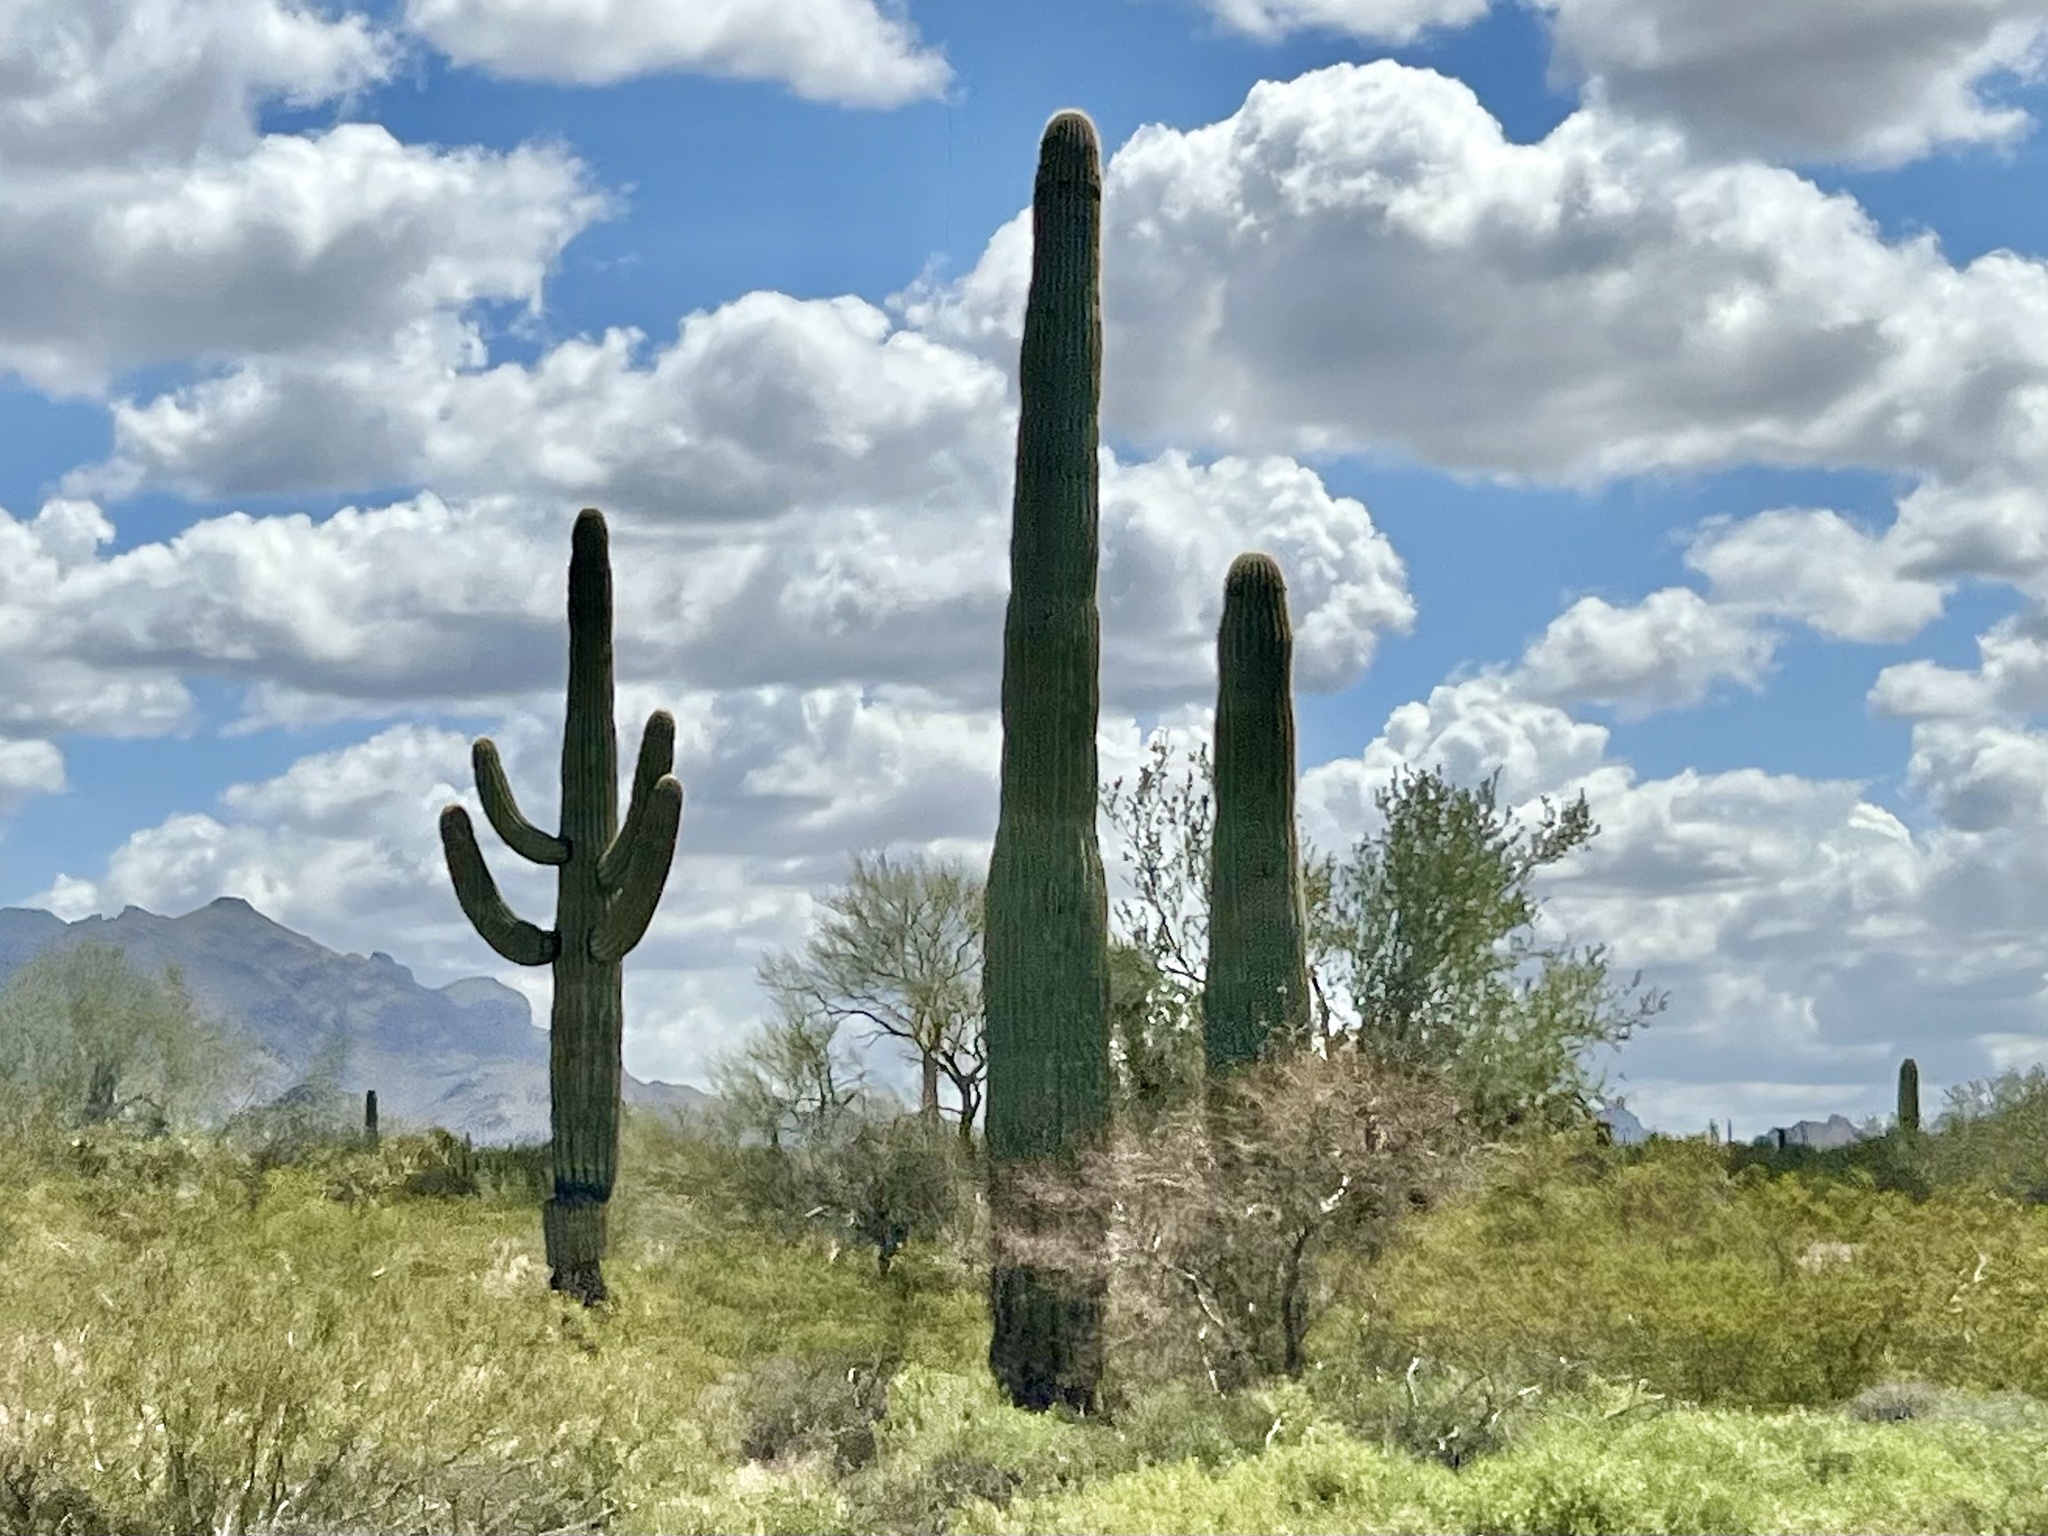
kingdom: Plantae
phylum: Tracheophyta
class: Magnoliopsida
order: Caryophyllales
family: Cactaceae
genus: Carnegiea
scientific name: Carnegiea gigantea
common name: Saguaro
